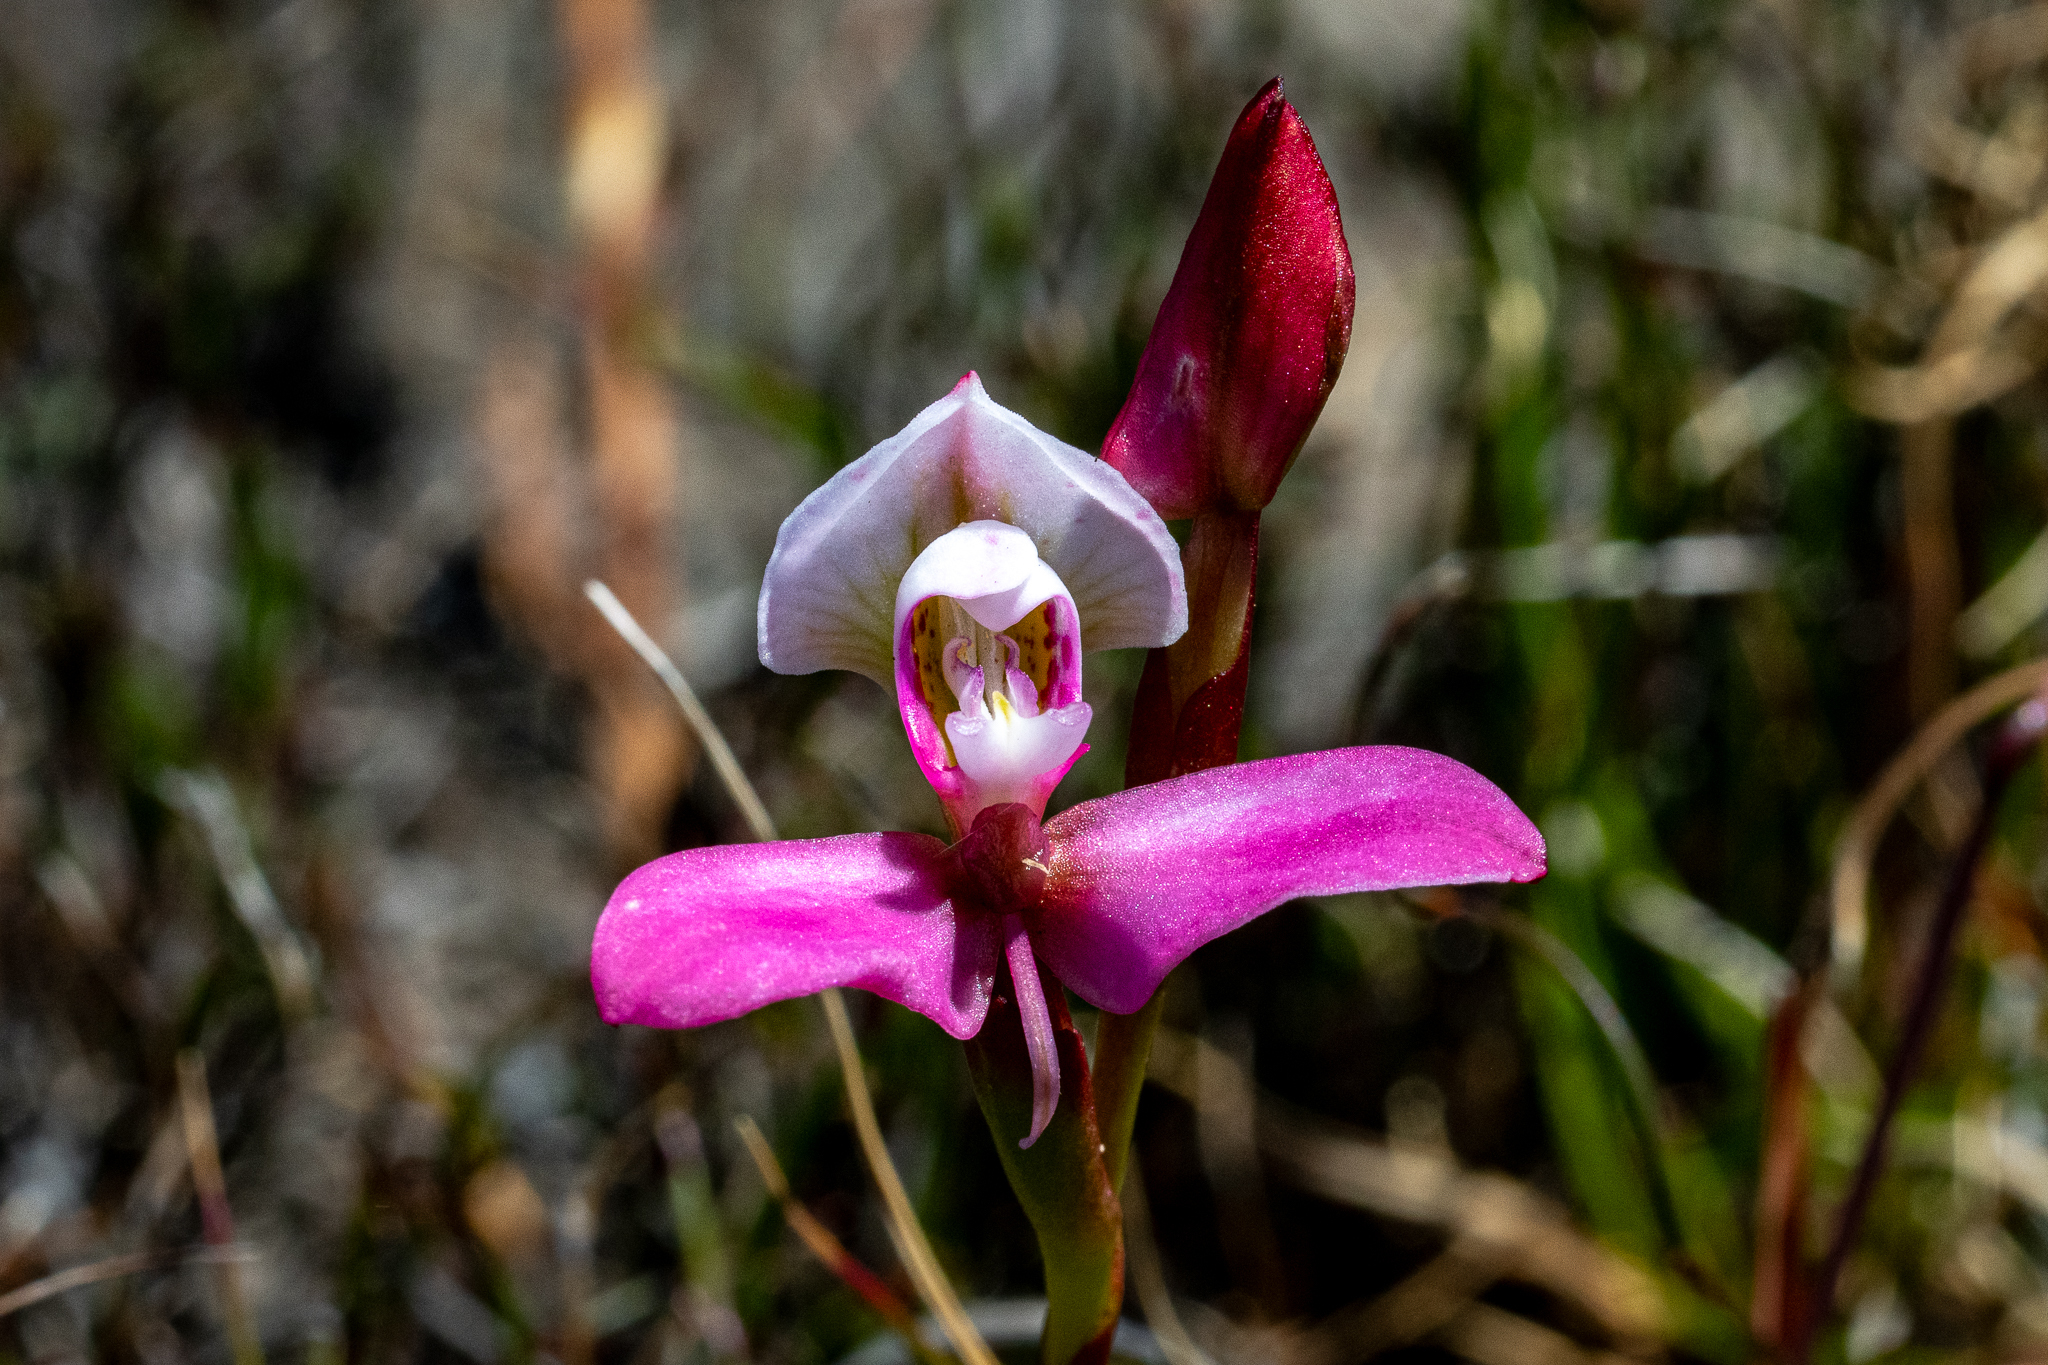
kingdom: Plantae
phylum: Tracheophyta
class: Liliopsida
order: Asparagales
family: Orchidaceae
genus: Disa
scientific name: Disa filicornis
